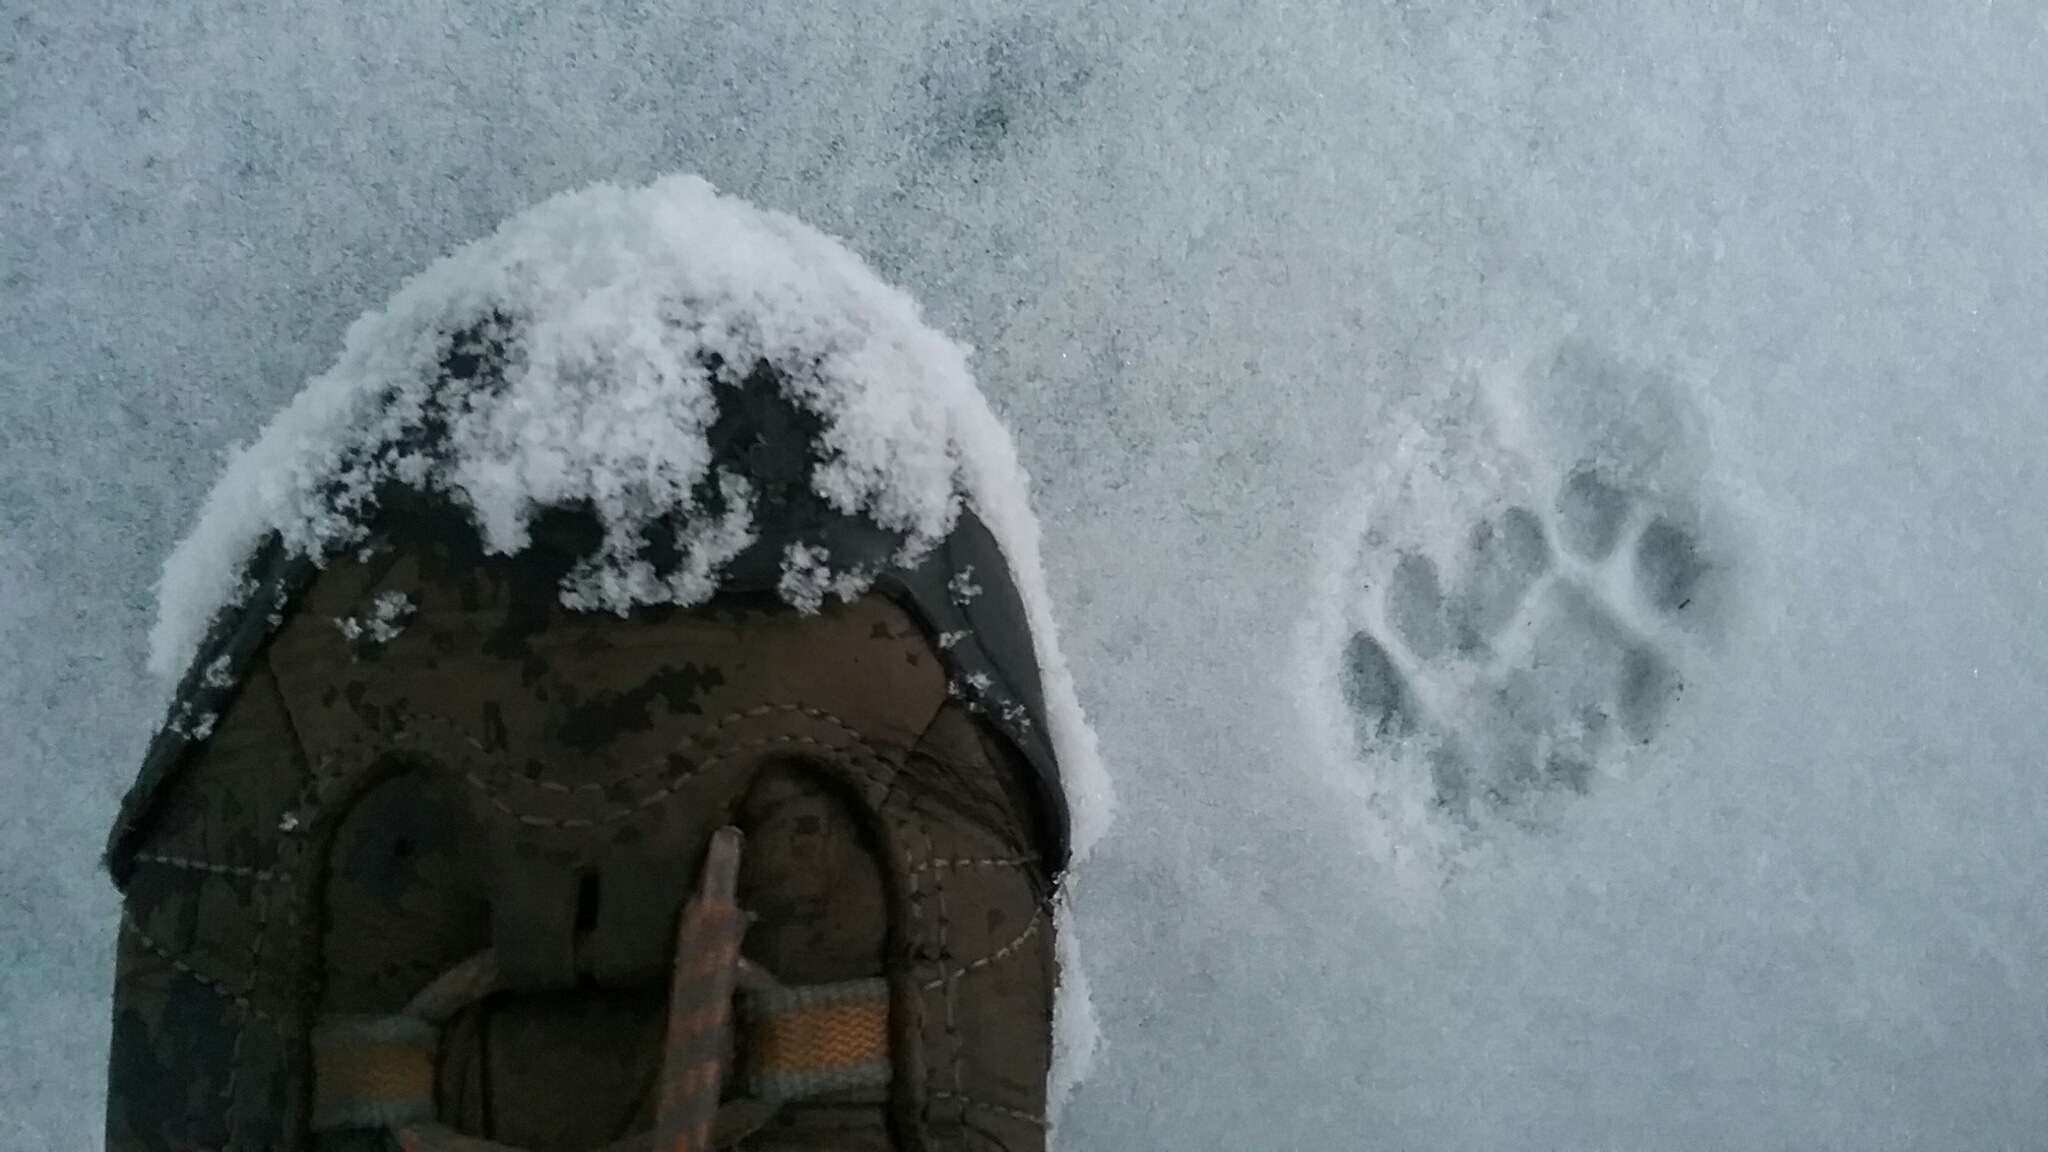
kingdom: Animalia
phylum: Chordata
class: Mammalia
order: Carnivora
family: Felidae
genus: Felis
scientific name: Felis catus
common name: Domestic cat
